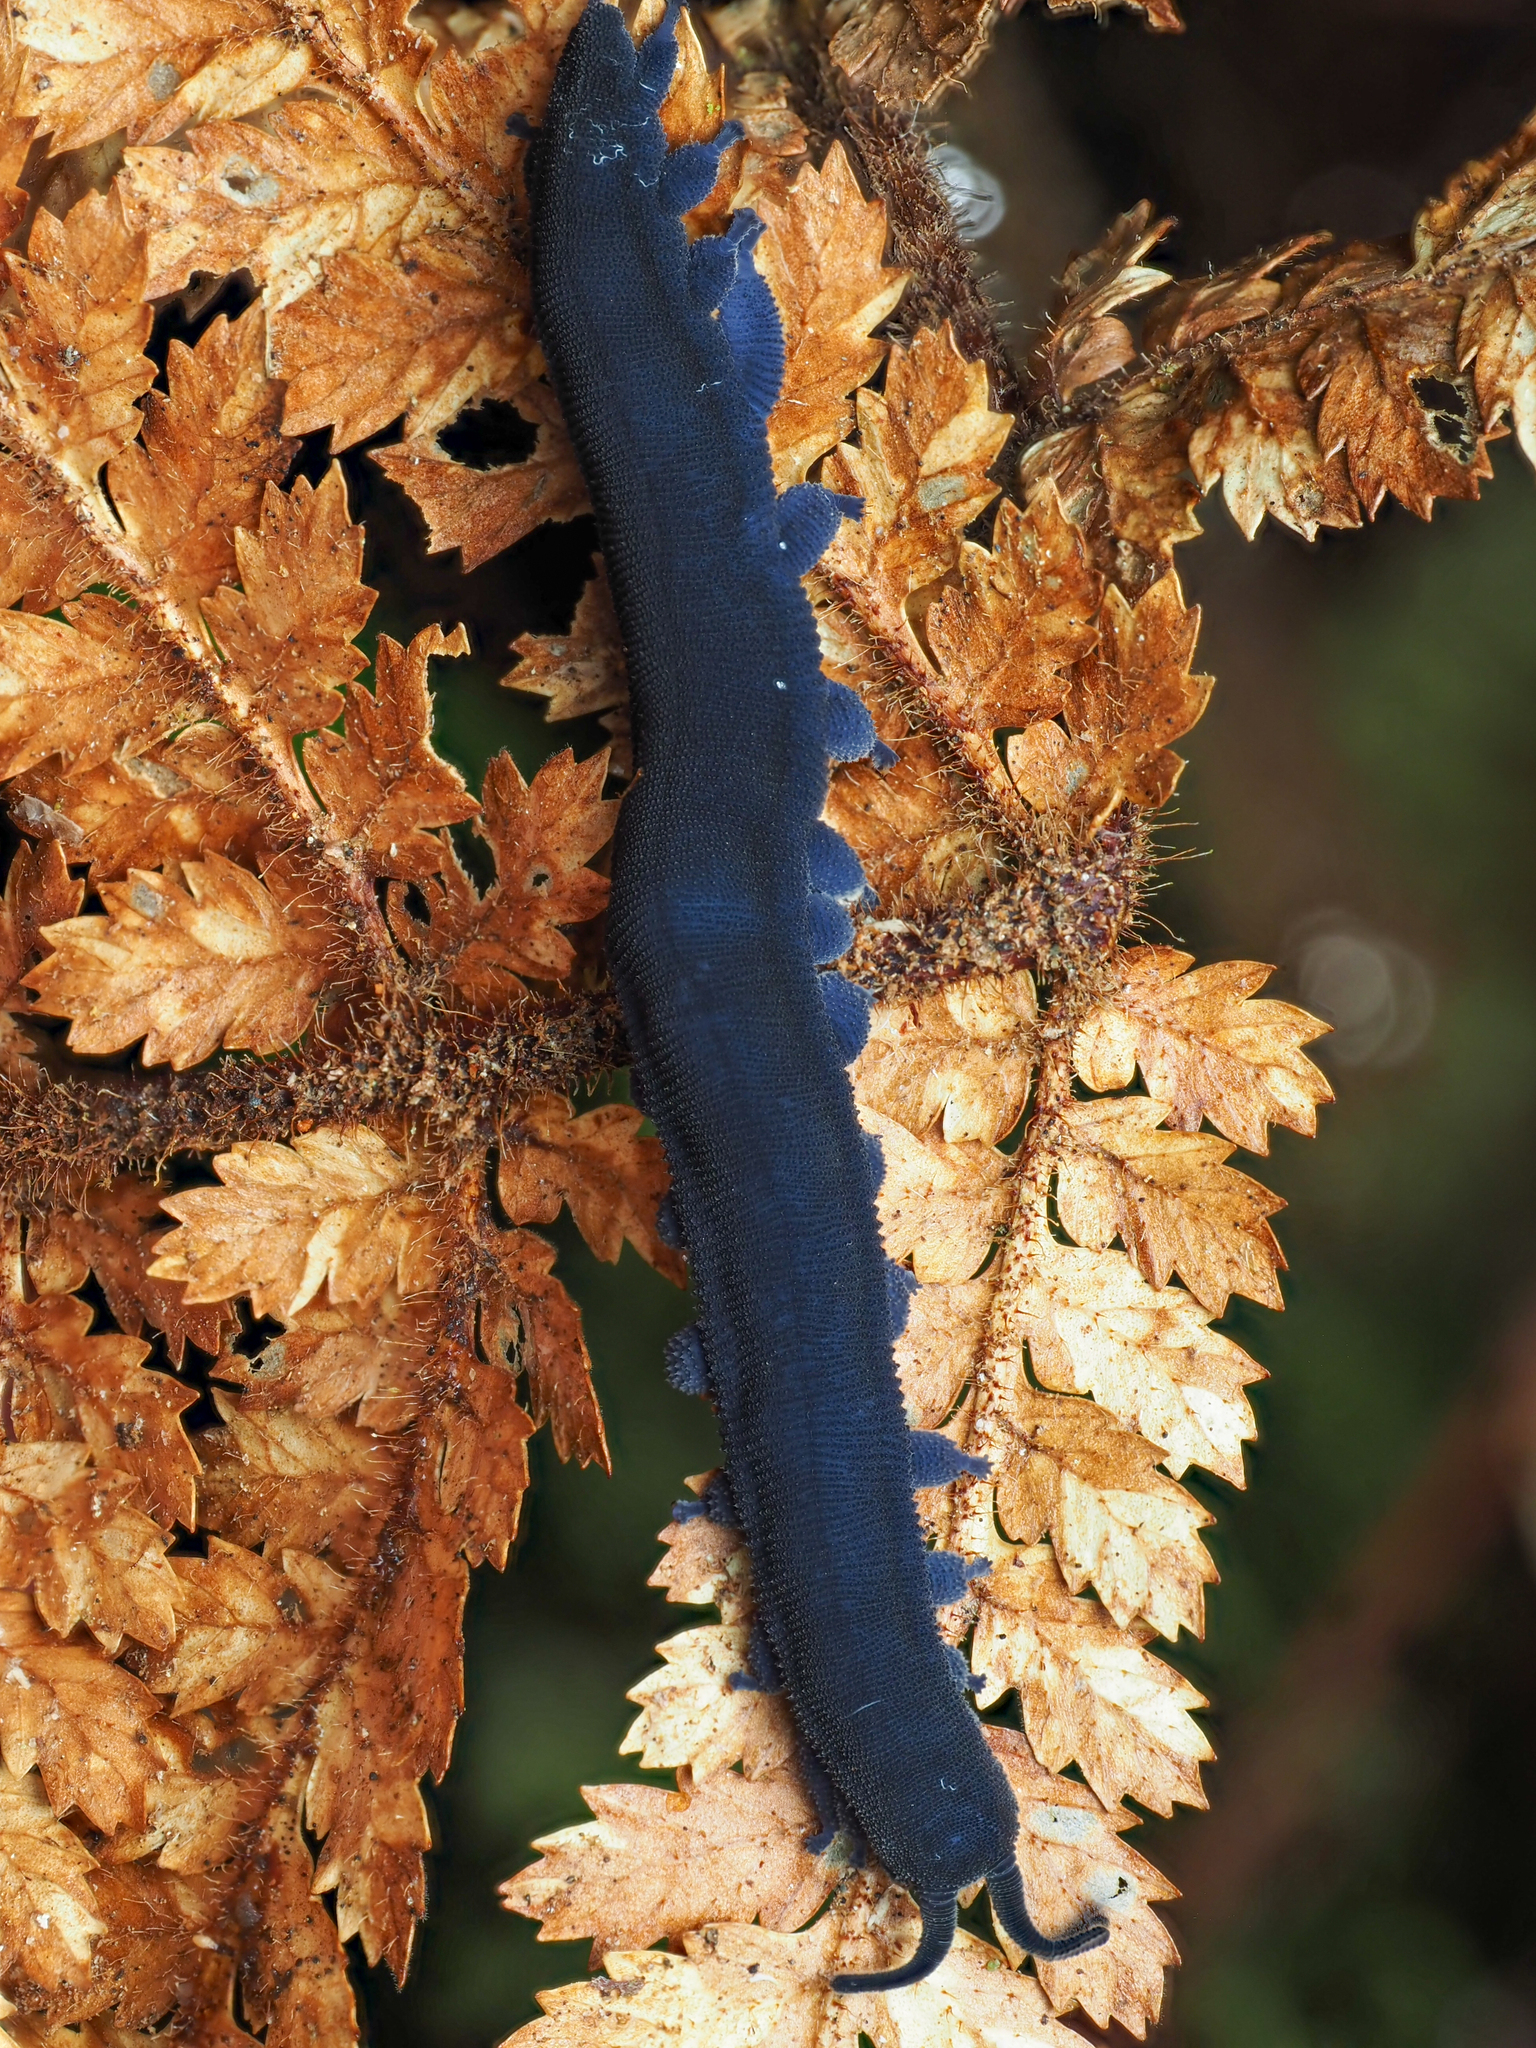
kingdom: Animalia
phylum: Onychophora
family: Peripatopsidae
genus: Peripatoides
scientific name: Peripatoides indigo
